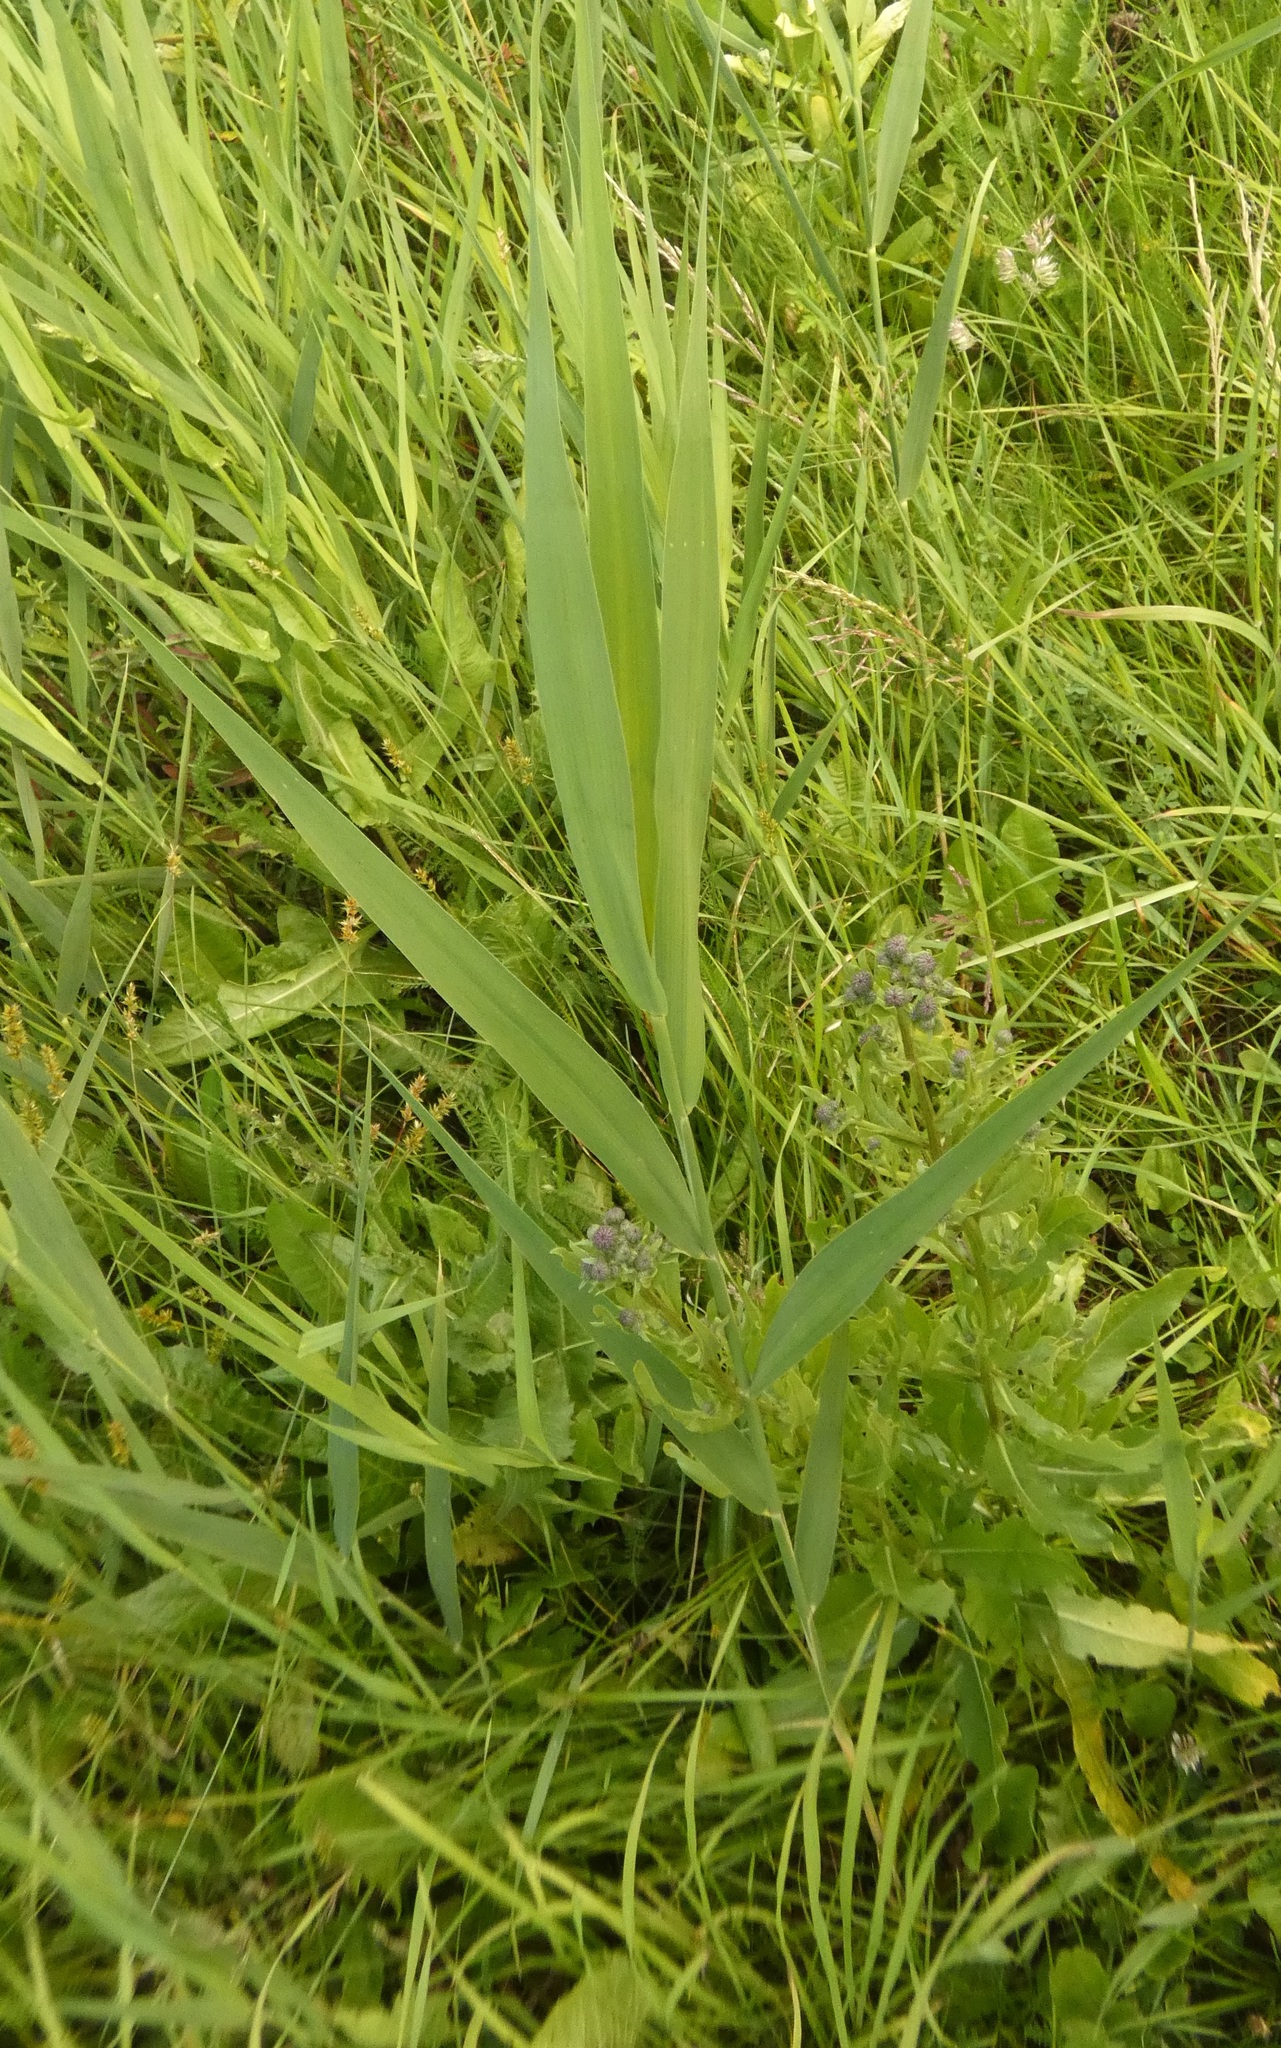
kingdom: Plantae
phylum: Tracheophyta
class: Liliopsida
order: Poales
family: Poaceae
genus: Phragmites
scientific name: Phragmites australis
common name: Common reed
